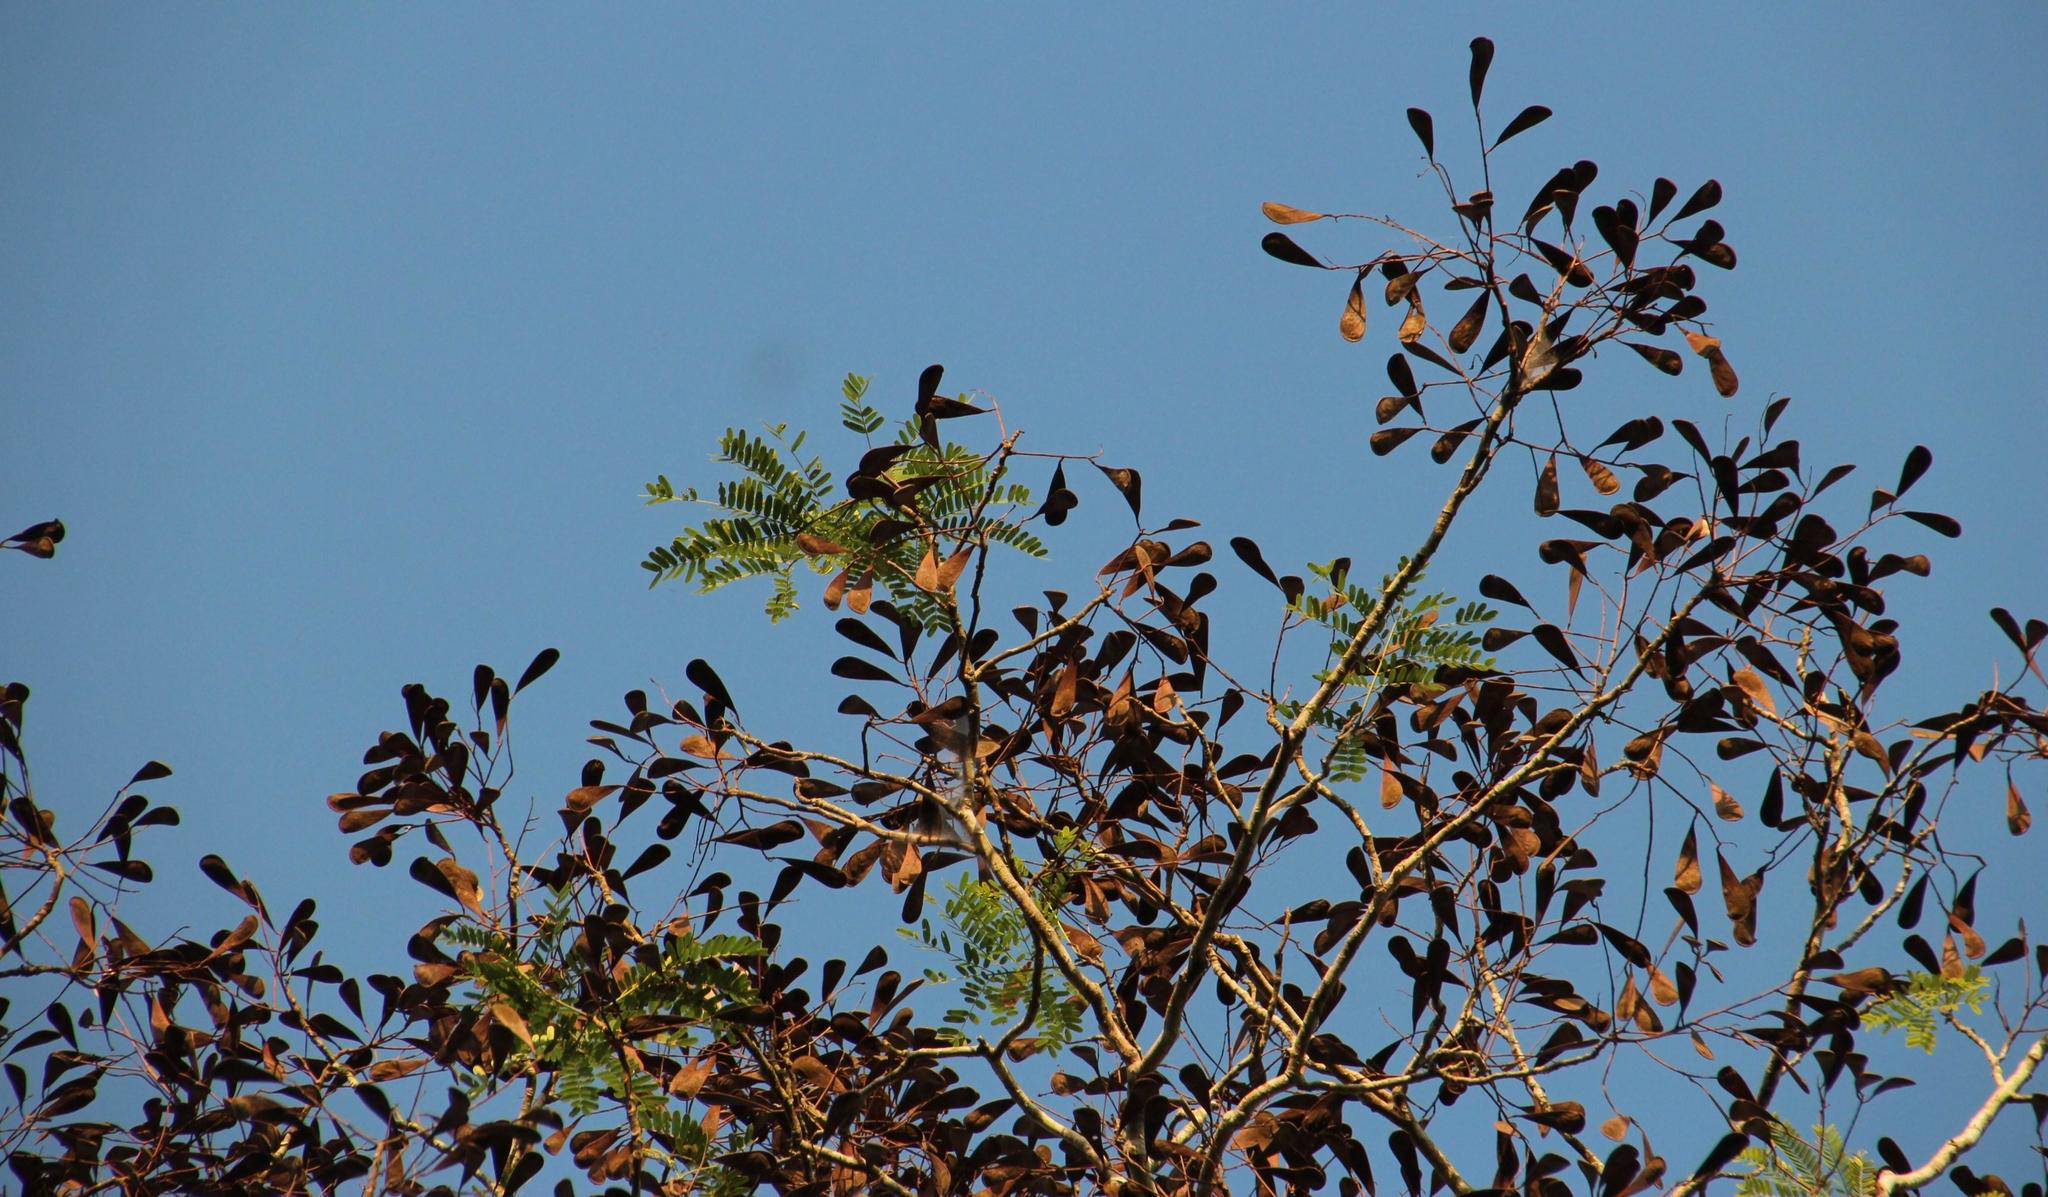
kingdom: Plantae
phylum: Tracheophyta
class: Magnoliopsida
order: Fabales
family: Fabaceae
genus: Schizolobium
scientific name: Schizolobium parahyba
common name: Brazilian firetree
